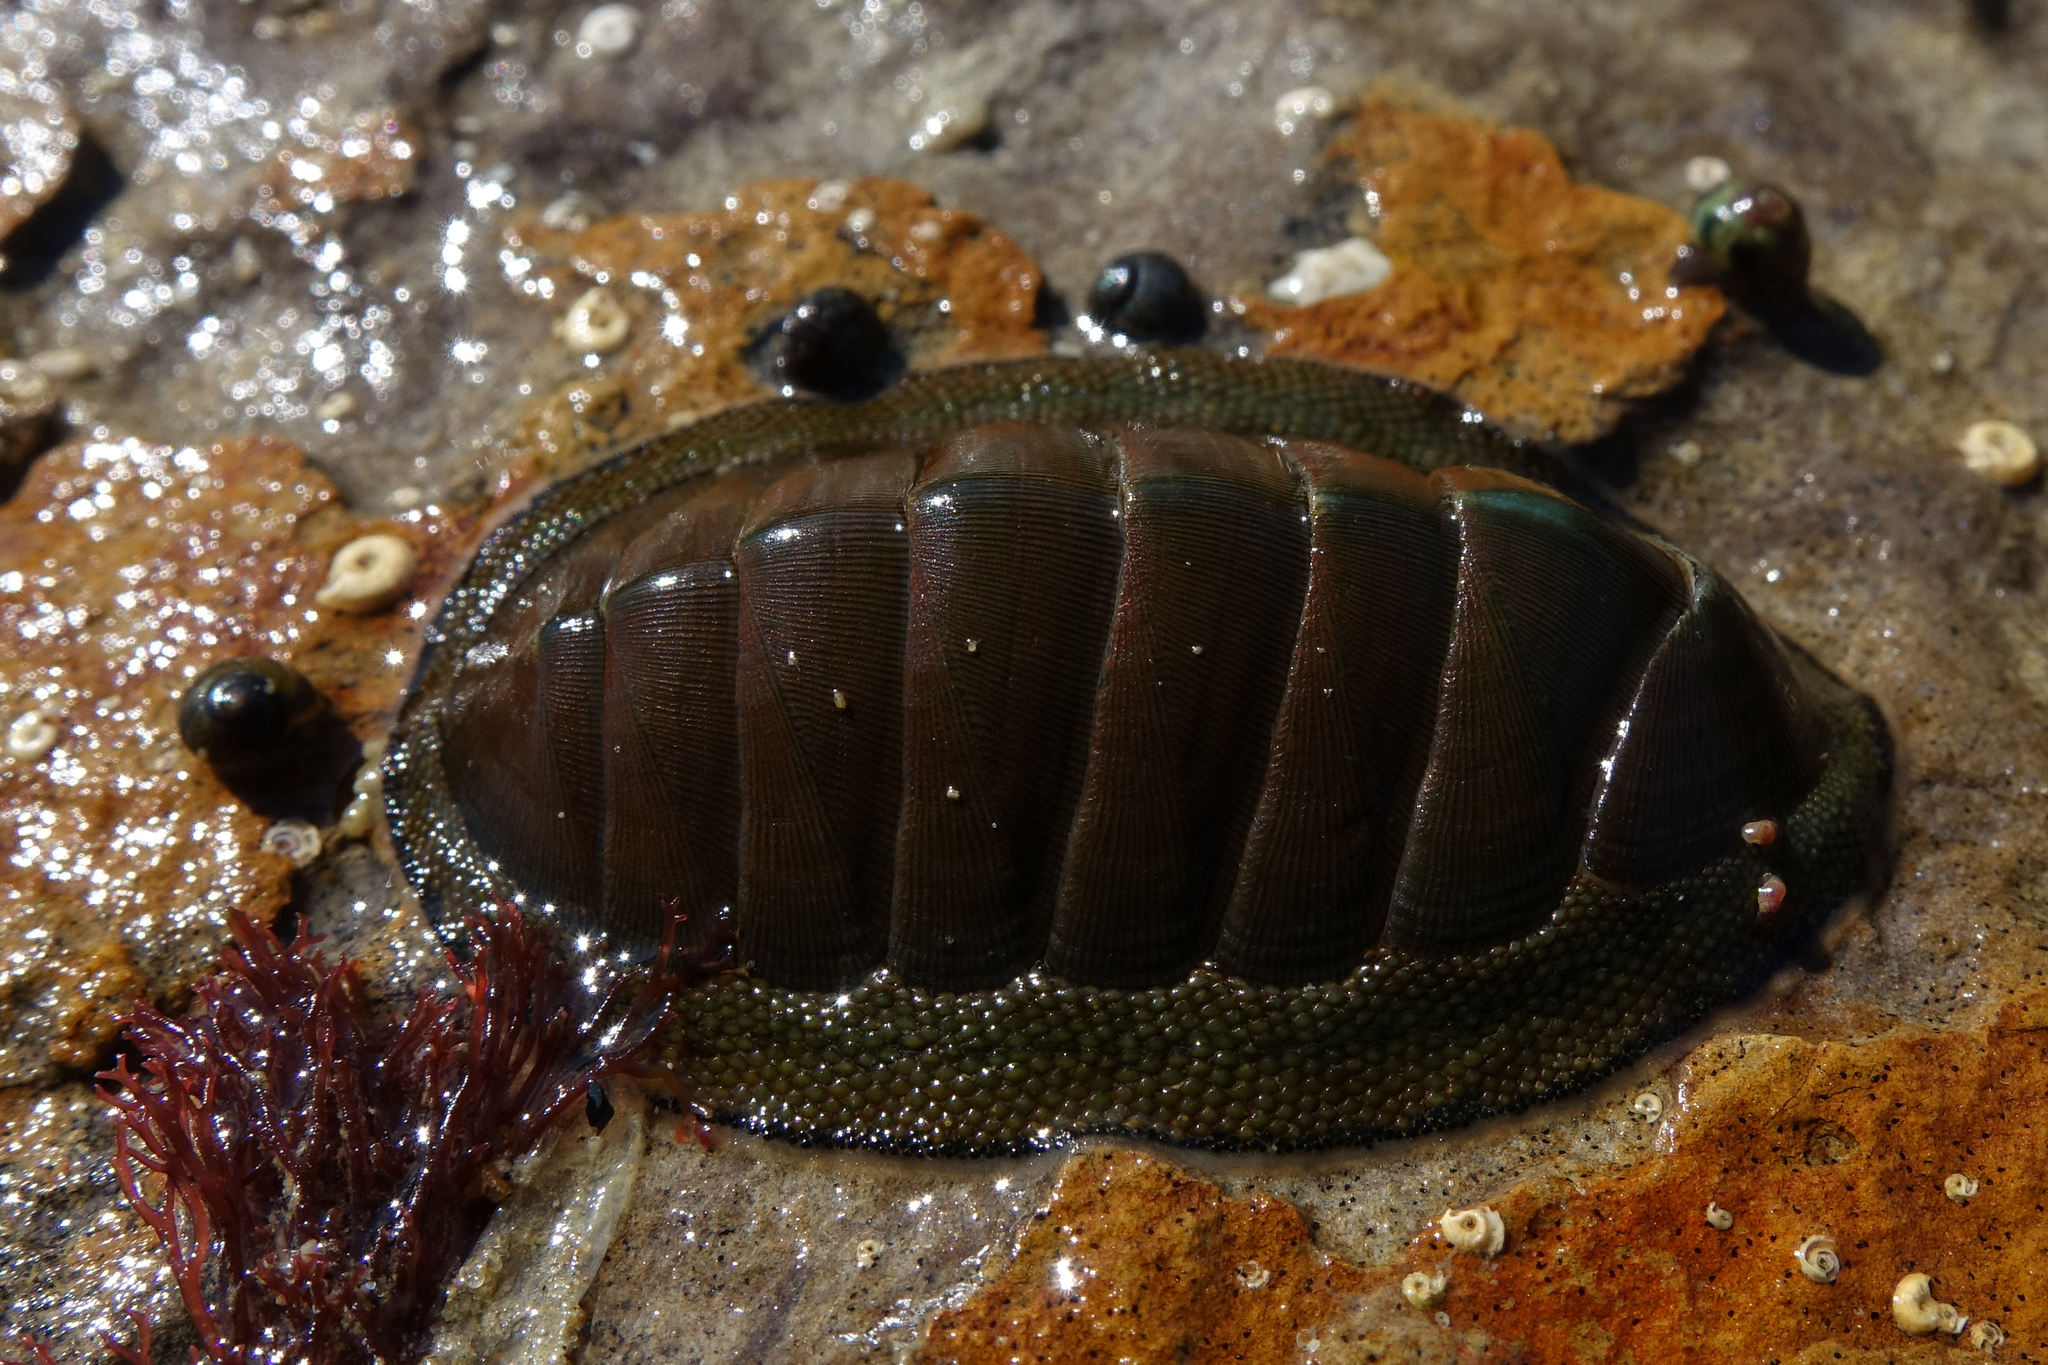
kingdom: Animalia
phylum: Mollusca
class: Polyplacophora
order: Chitonida
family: Chitonidae
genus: Chiton
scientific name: Chiton glaucus
